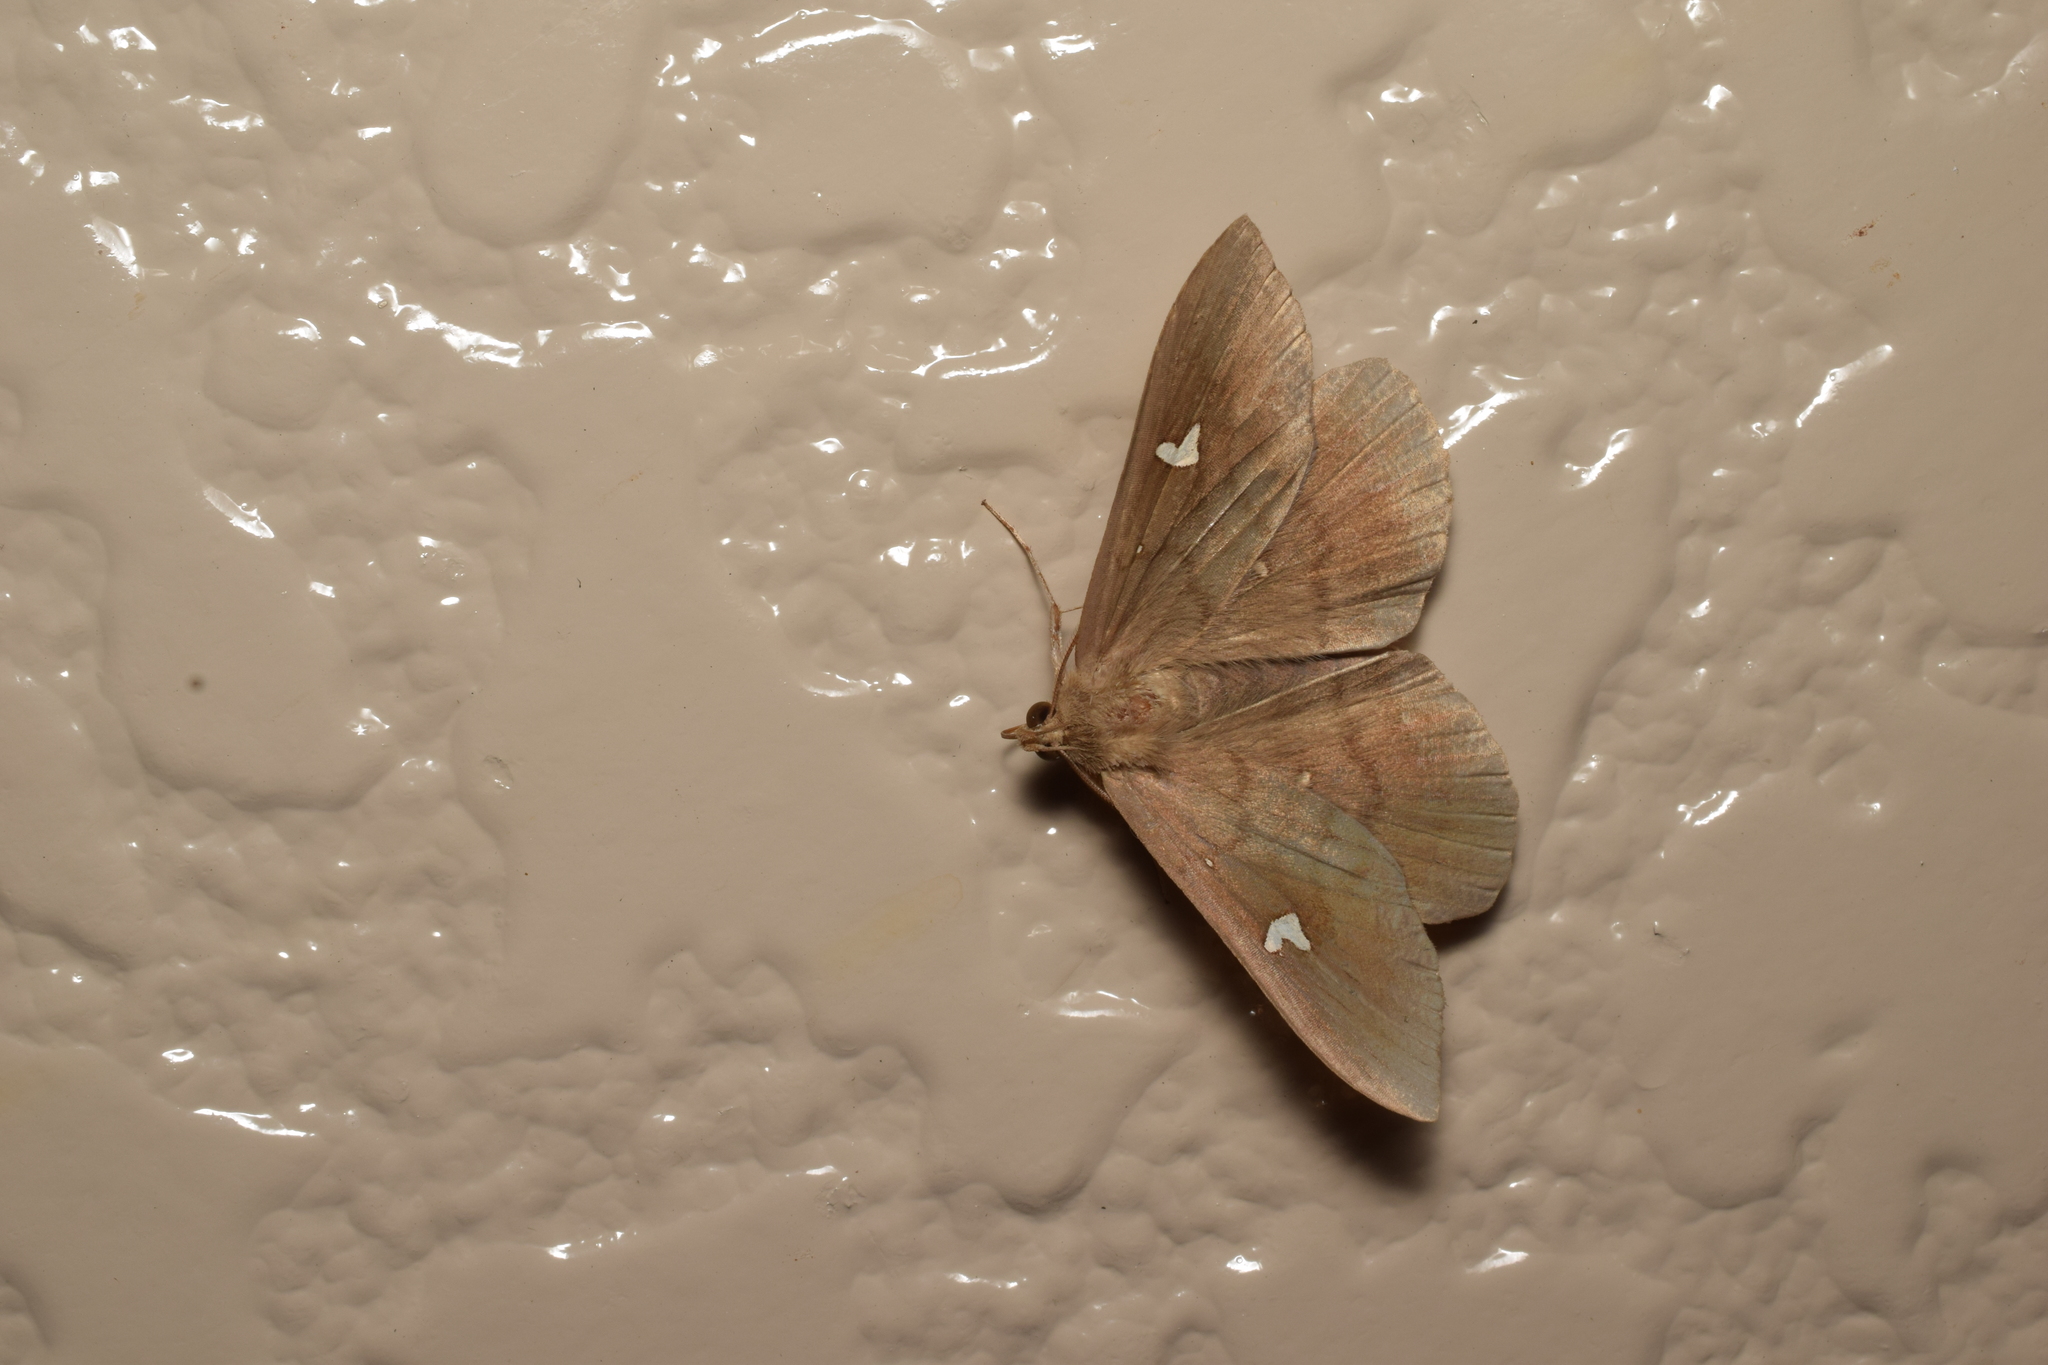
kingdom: Animalia
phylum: Arthropoda
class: Insecta
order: Lepidoptera
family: Erebidae
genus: Edessena
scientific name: Edessena hamada
